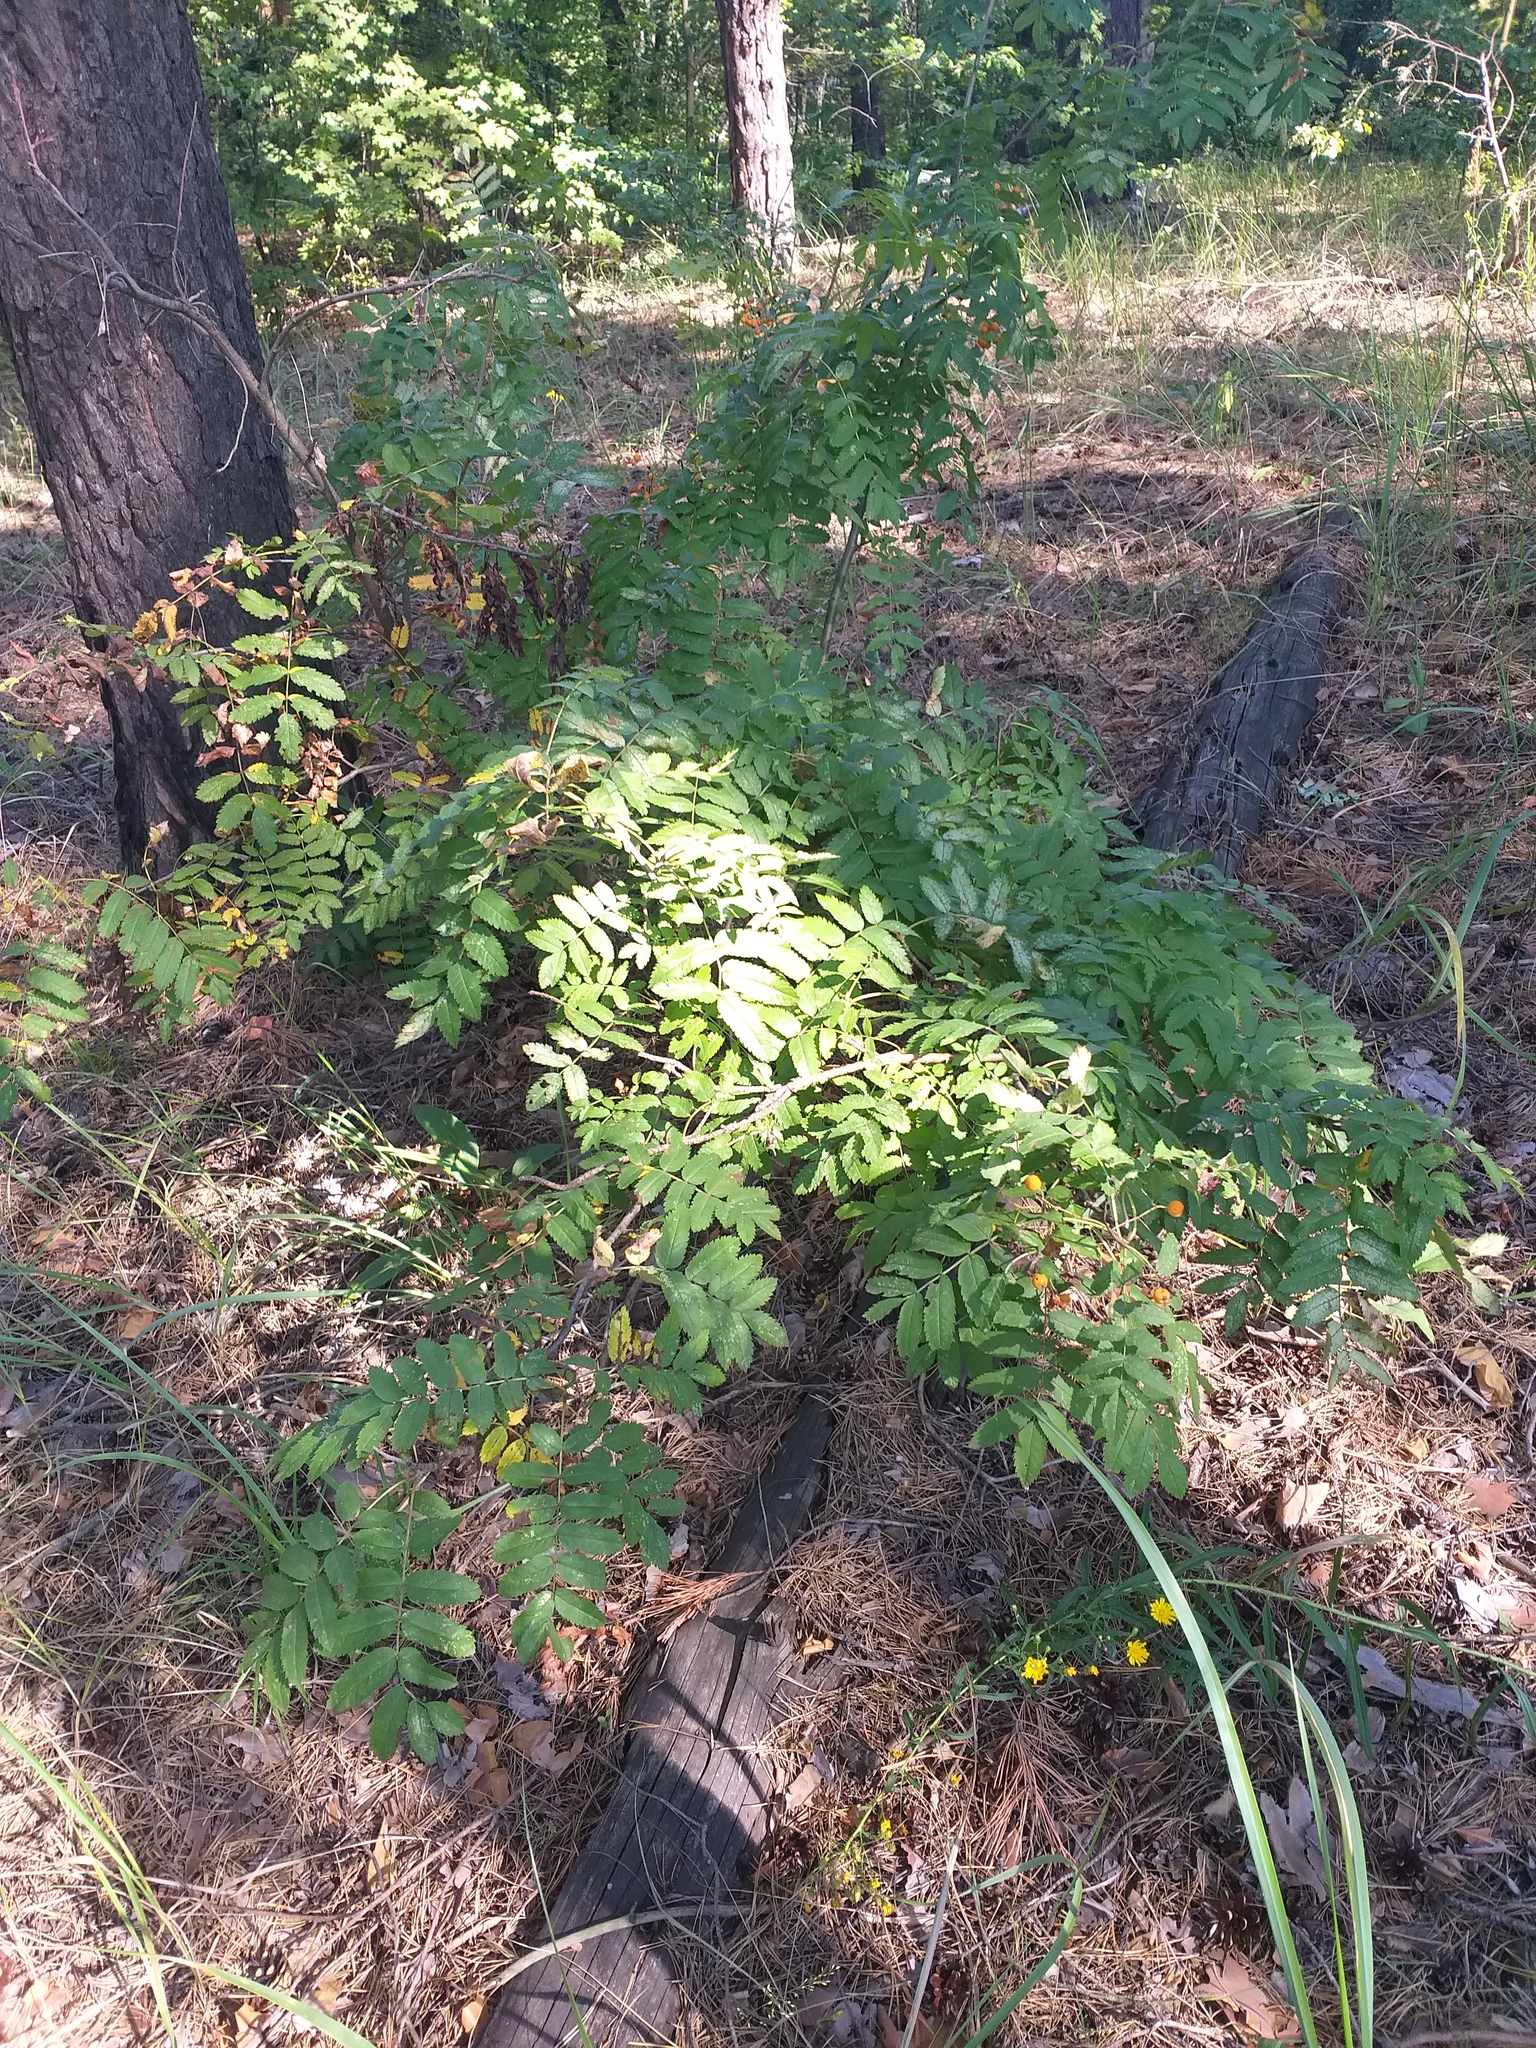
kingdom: Plantae
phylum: Tracheophyta
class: Magnoliopsida
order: Rosales
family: Rosaceae
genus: Sorbus
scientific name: Sorbus aucuparia
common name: Rowan
